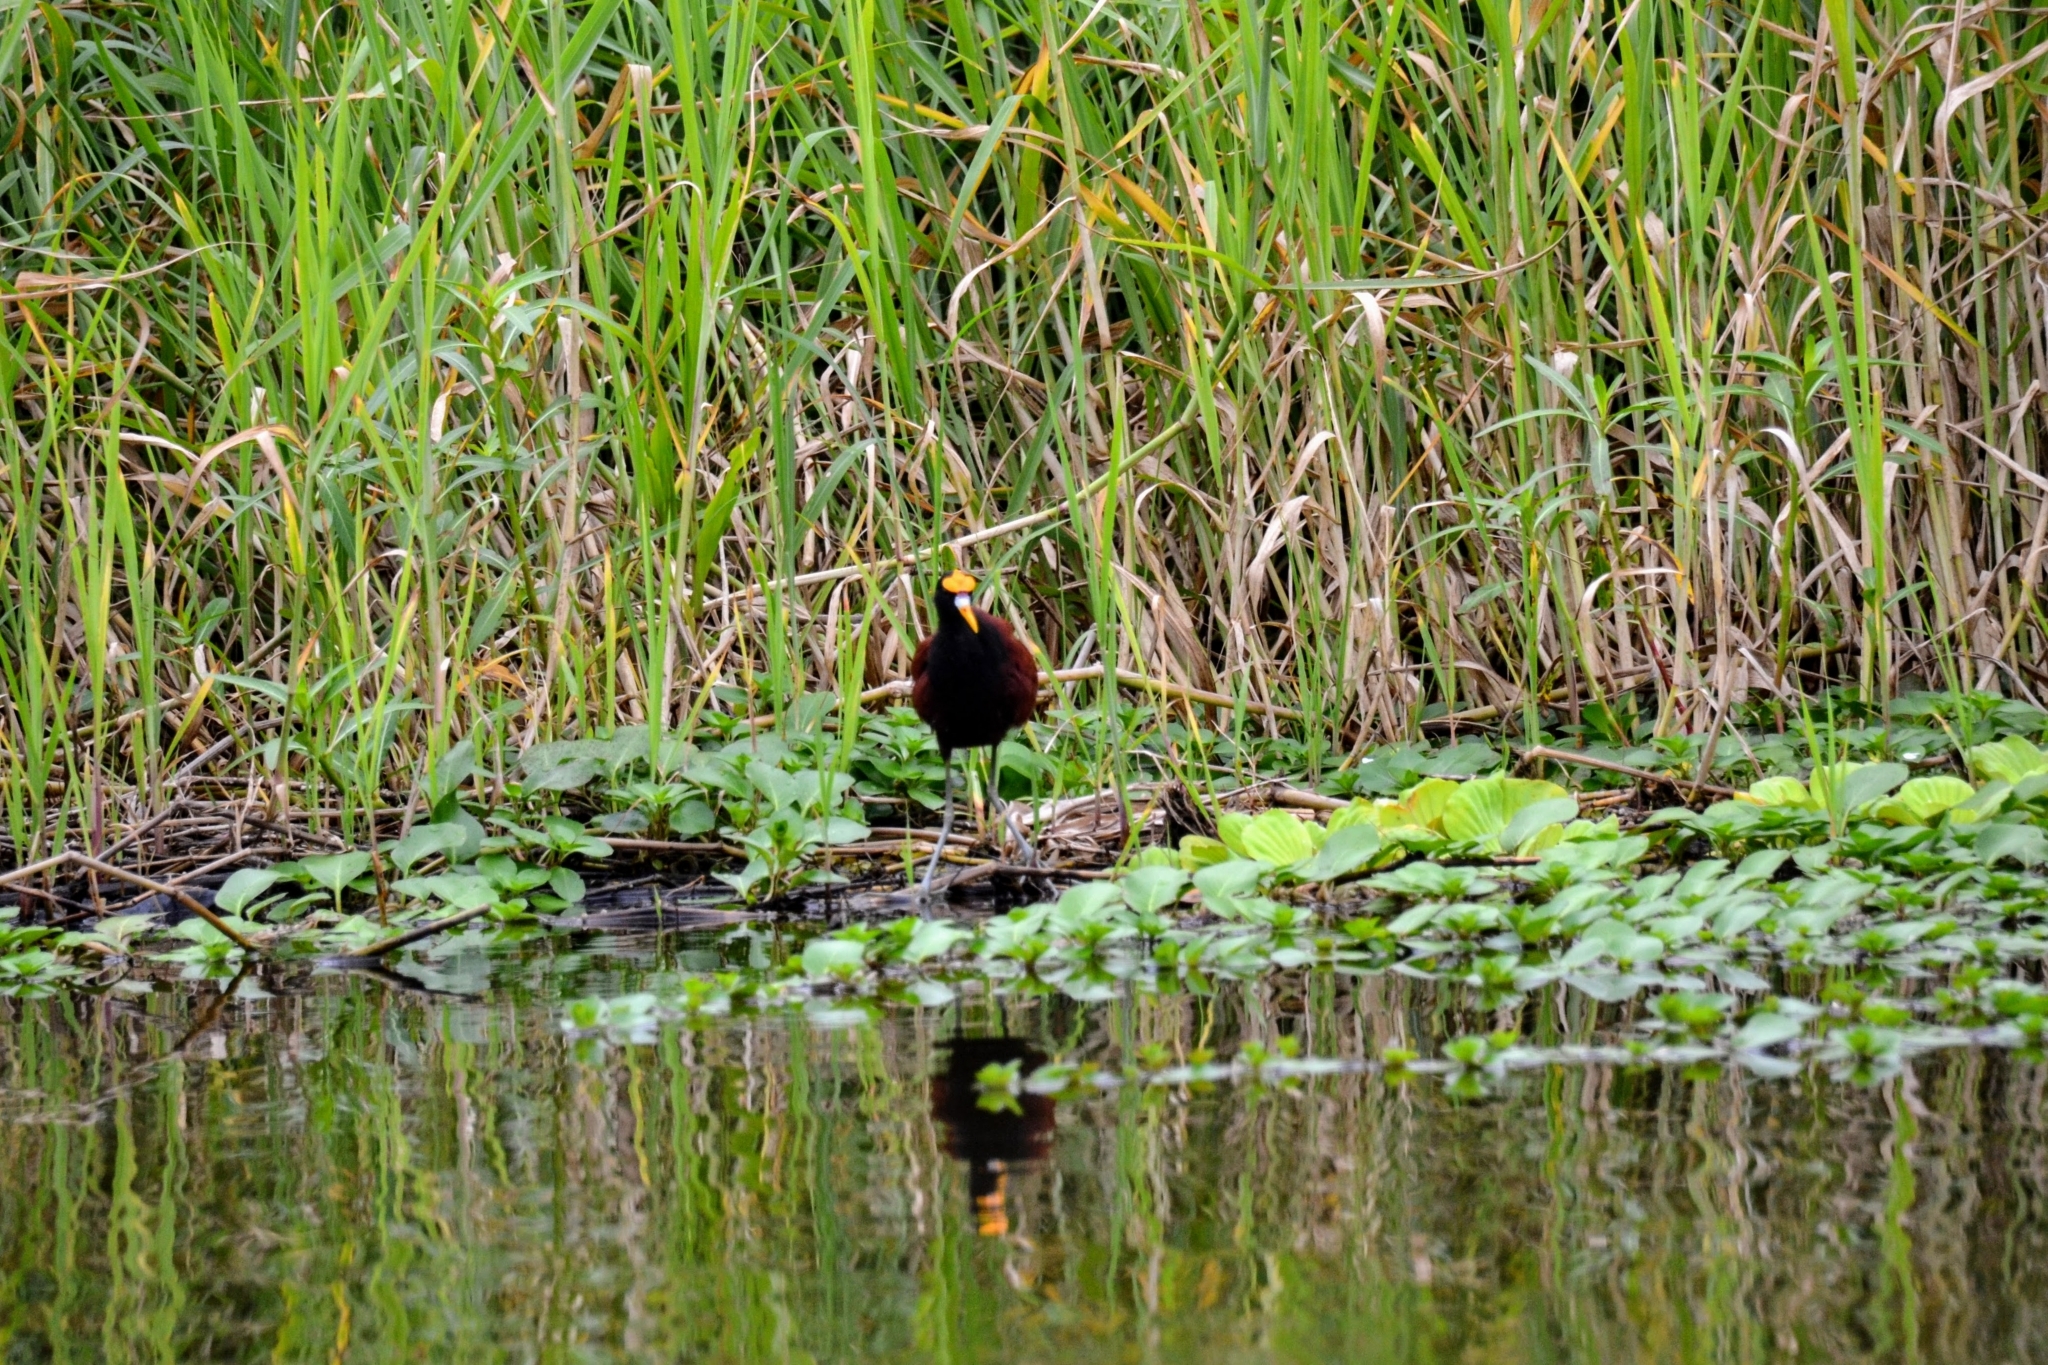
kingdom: Animalia
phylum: Chordata
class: Aves
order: Charadriiformes
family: Jacanidae
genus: Jacana
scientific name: Jacana spinosa
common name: Northern jacana
